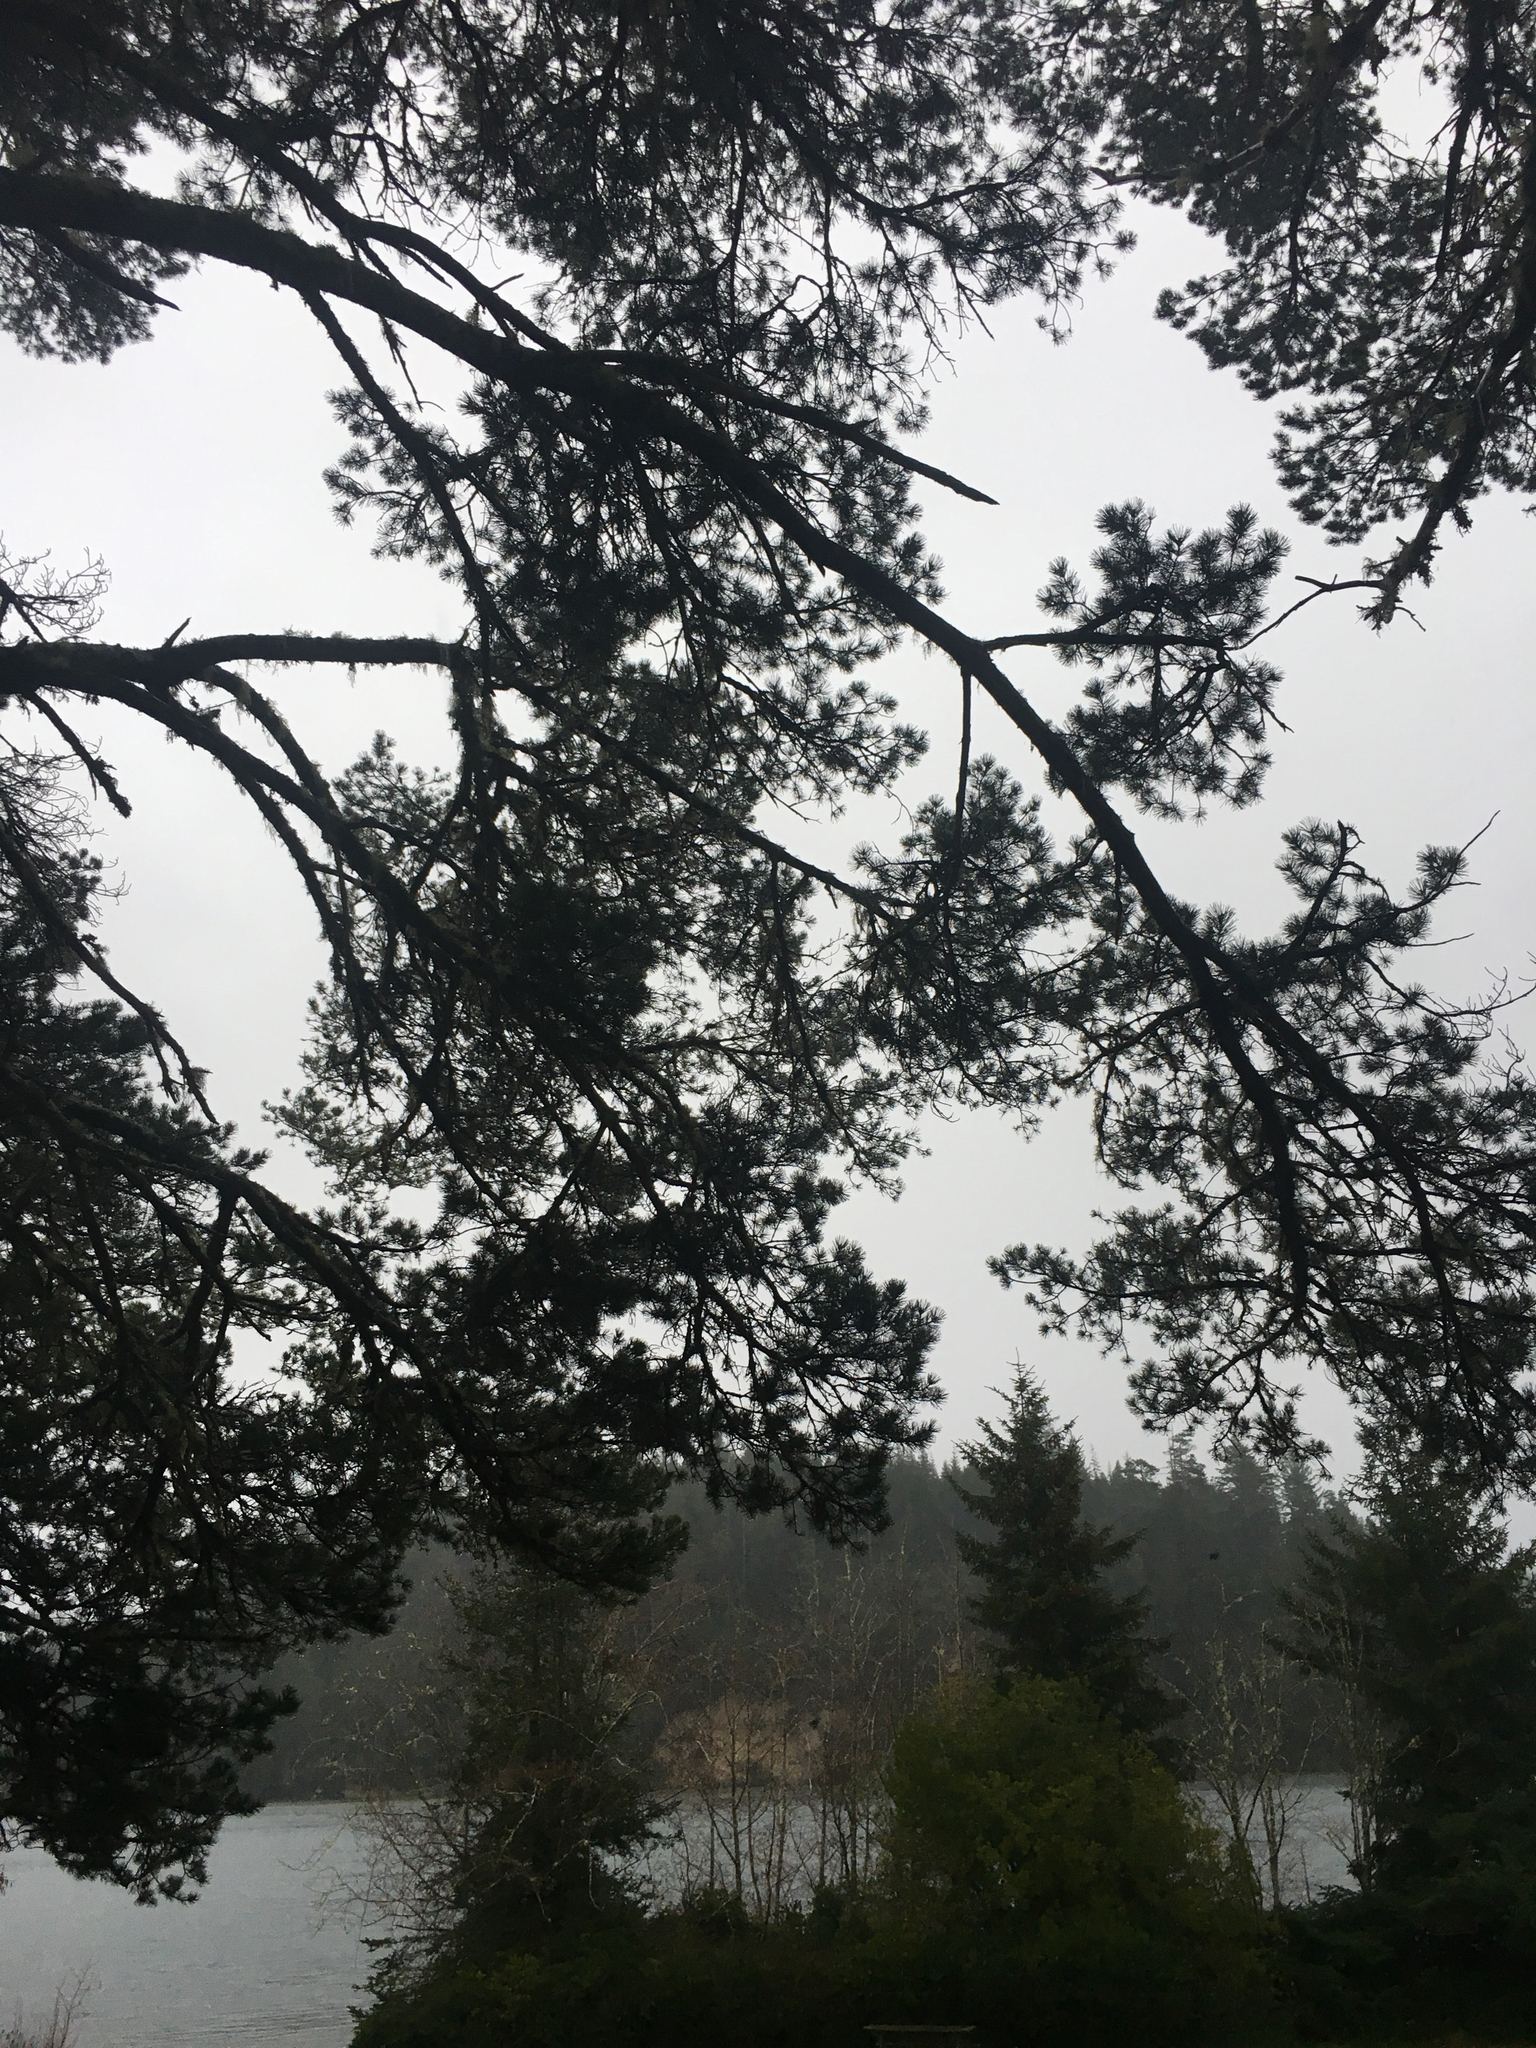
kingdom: Plantae
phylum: Tracheophyta
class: Pinopsida
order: Pinales
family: Pinaceae
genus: Pinus
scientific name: Pinus contorta
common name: Lodgepole pine
